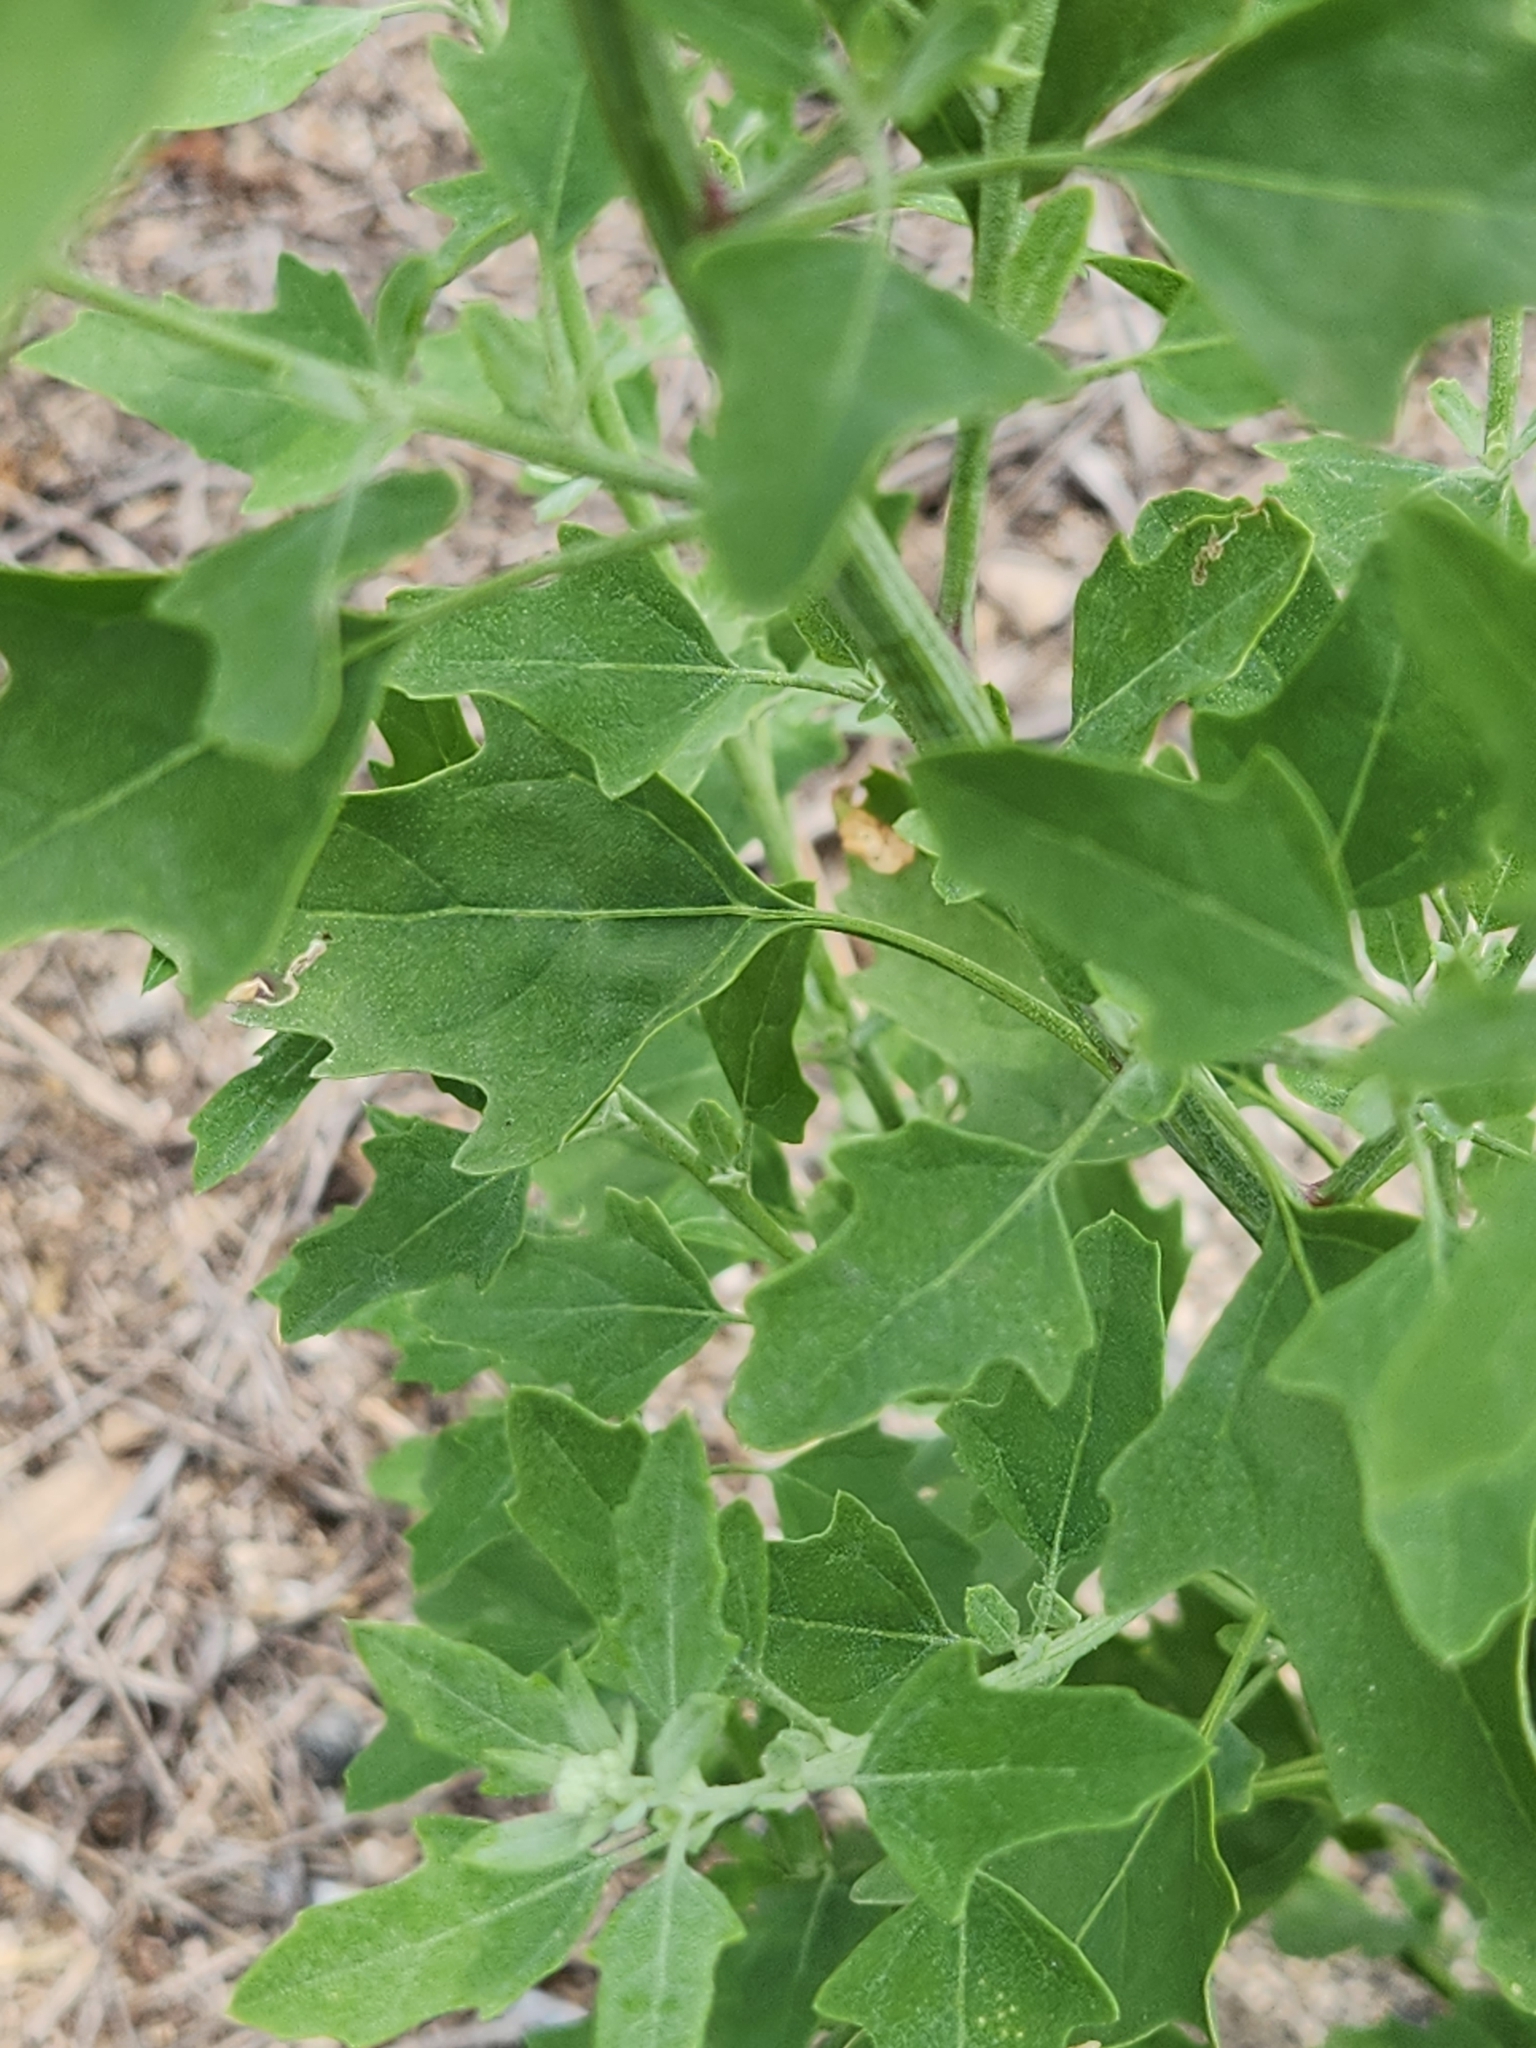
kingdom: Plantae
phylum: Tracheophyta
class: Magnoliopsida
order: Caryophyllales
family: Amaranthaceae
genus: Chenopodium
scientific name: Chenopodium album
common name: Fat-hen
